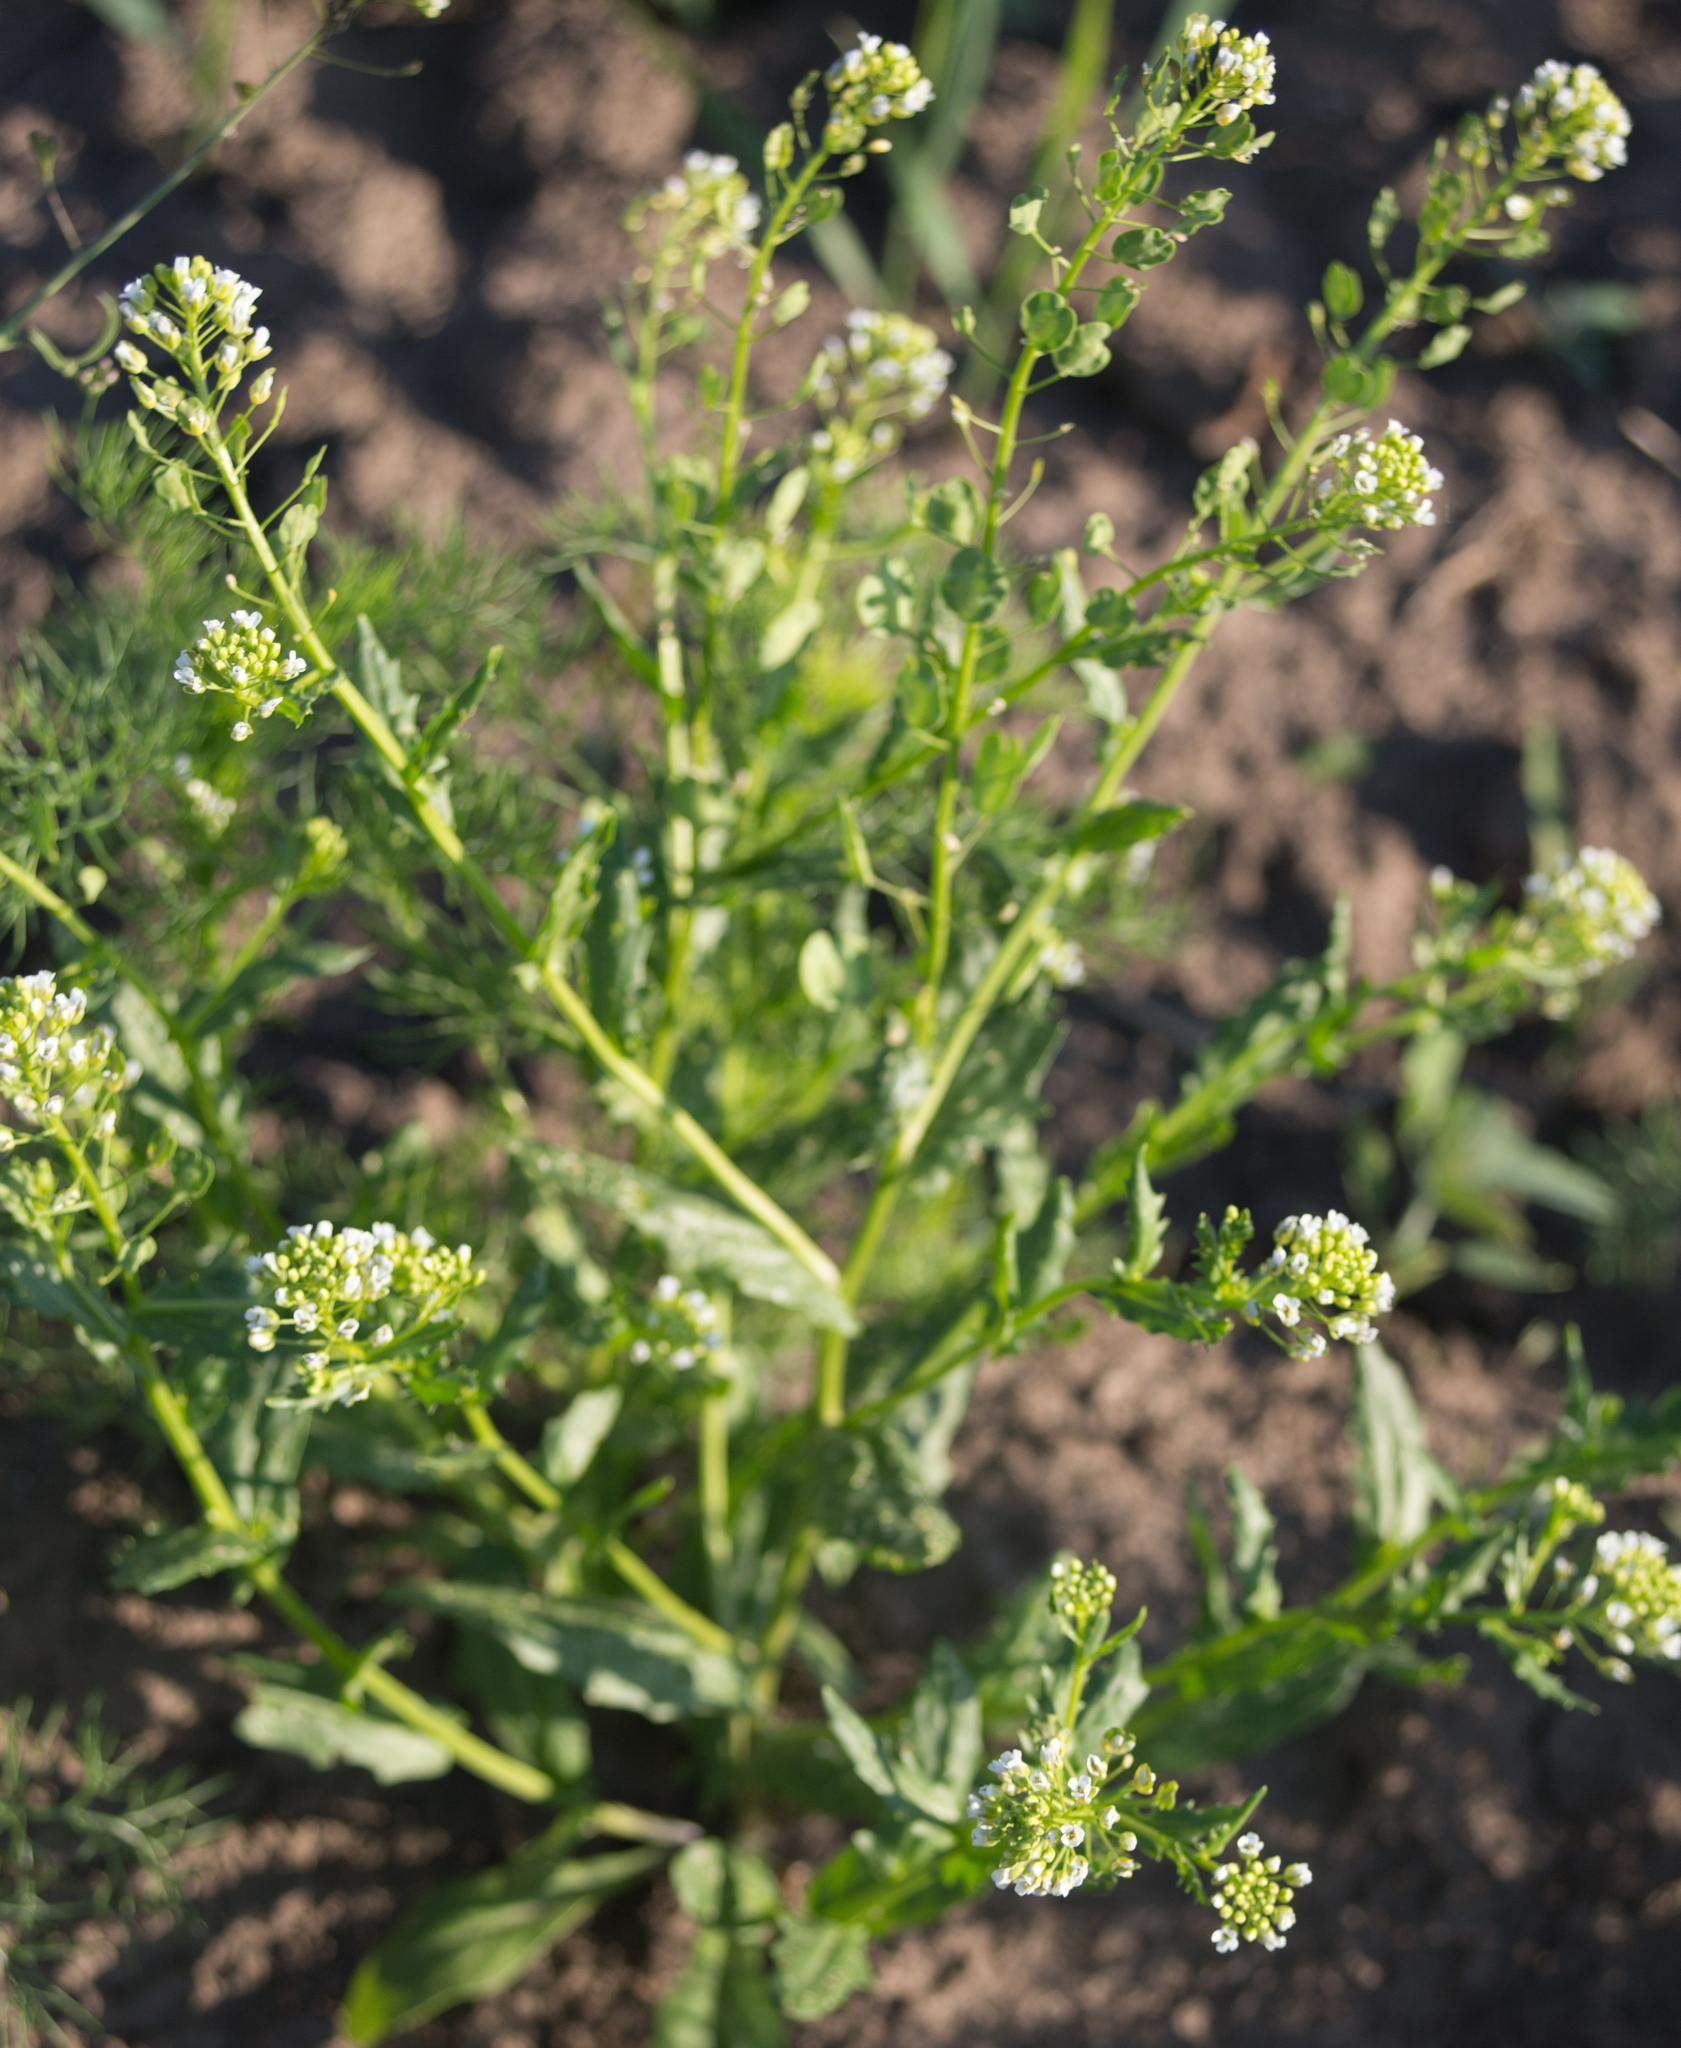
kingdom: Plantae
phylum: Tracheophyta
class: Magnoliopsida
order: Brassicales
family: Brassicaceae
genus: Thlaspi
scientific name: Thlaspi arvense
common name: Field pennycress
